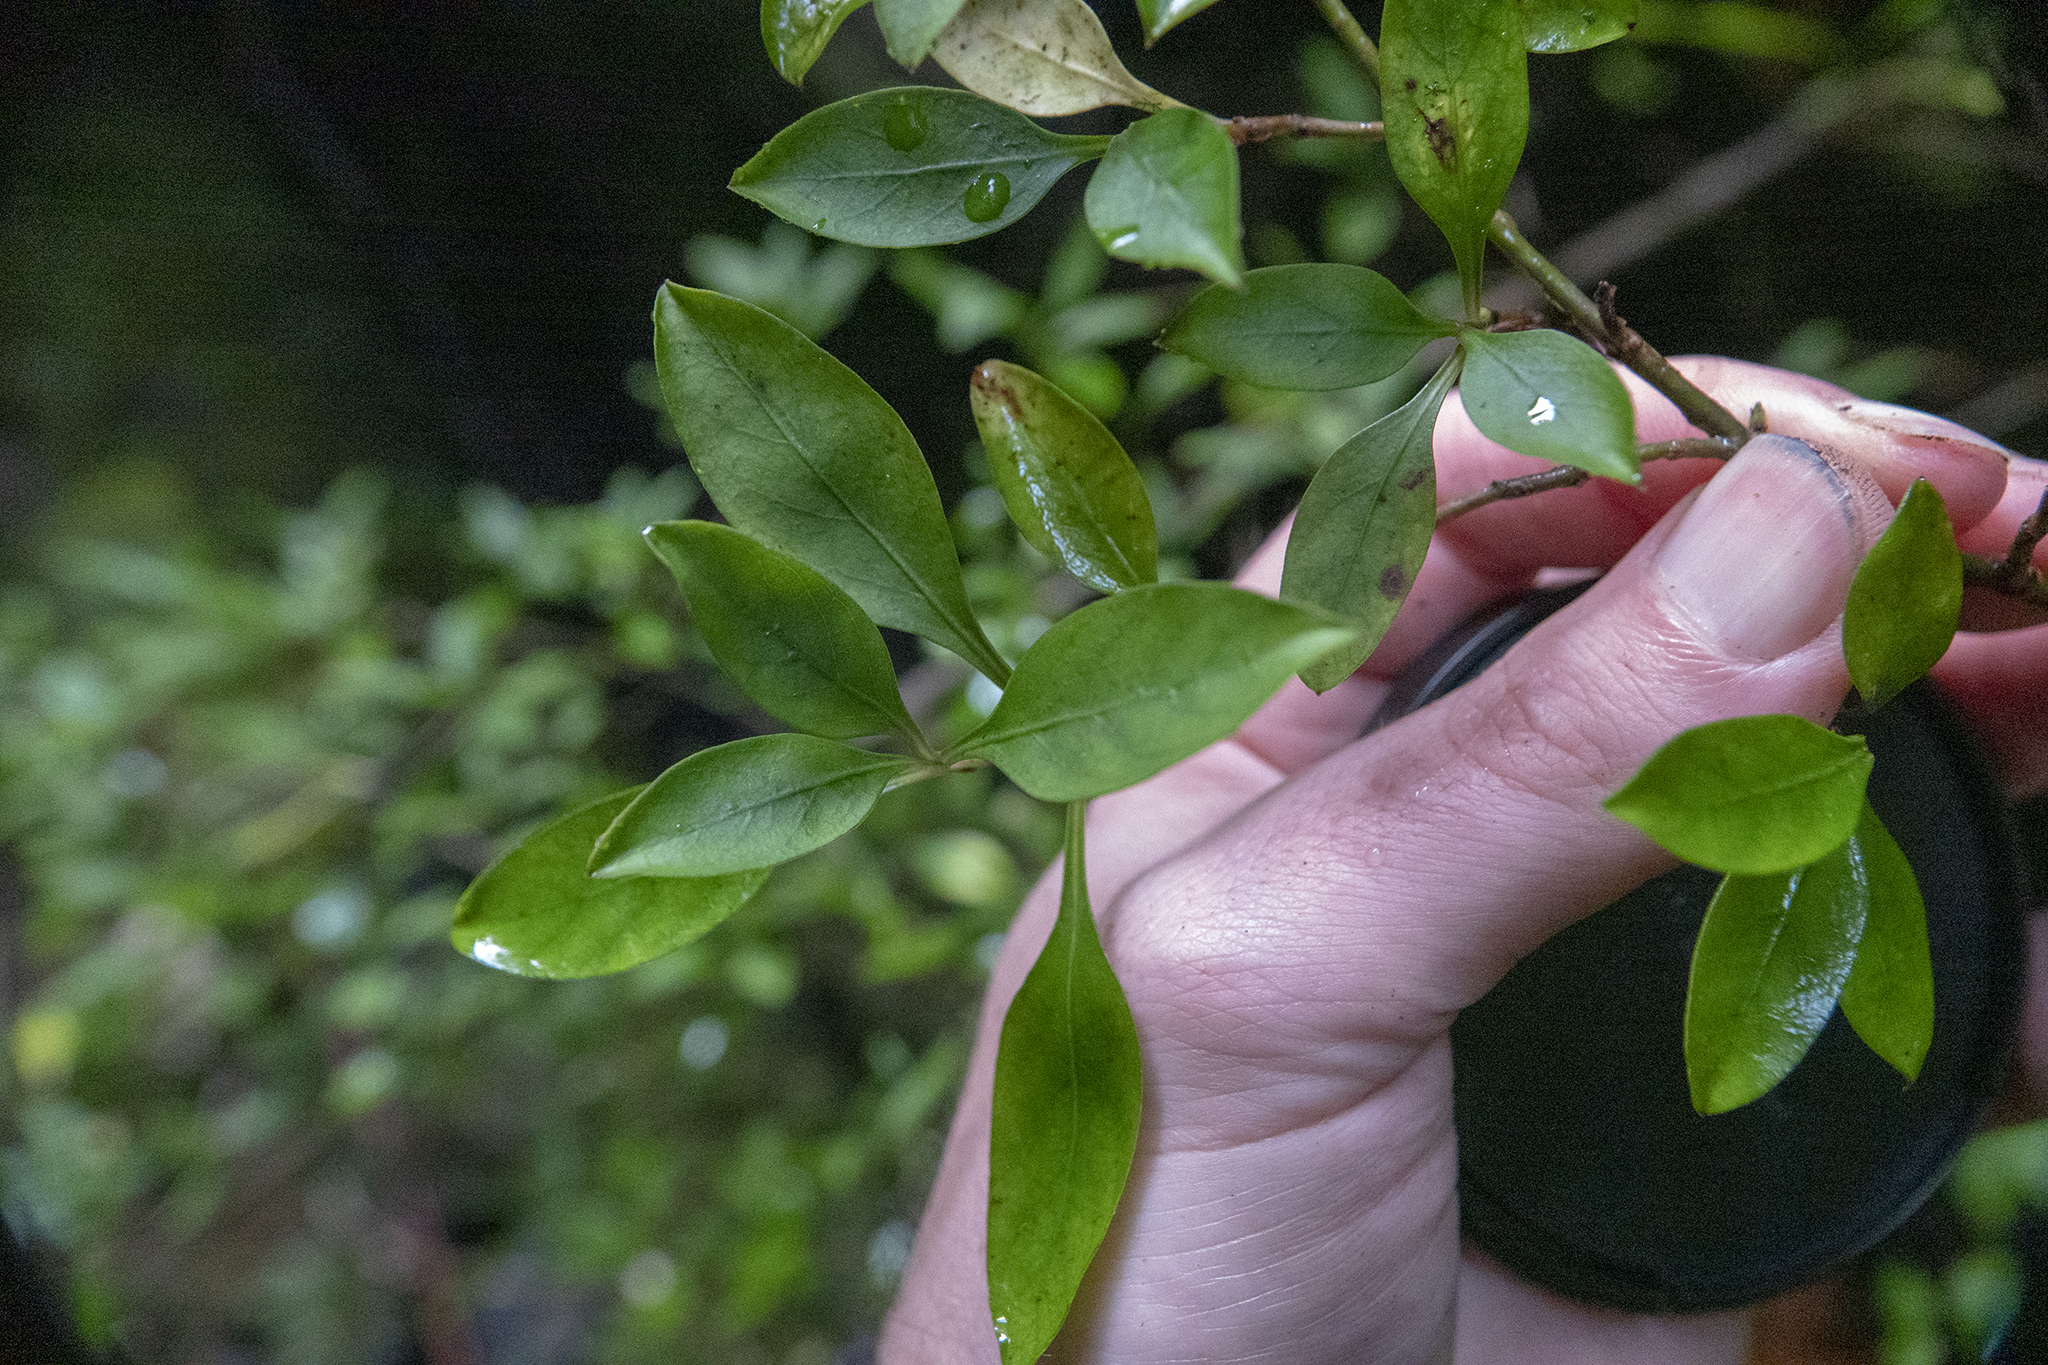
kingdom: Plantae
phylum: Tracheophyta
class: Magnoliopsida
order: Gentianales
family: Rubiaceae
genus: Coprosma
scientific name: Coprosma foetidissima
